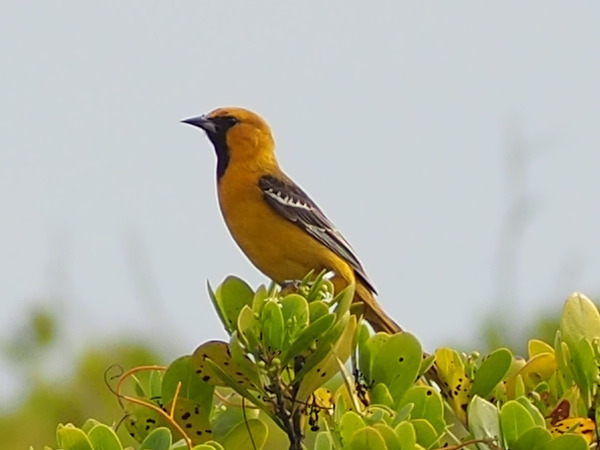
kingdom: Animalia
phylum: Chordata
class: Aves
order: Passeriformes
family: Icteridae
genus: Icterus
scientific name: Icterus auratus
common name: Orange oriole
